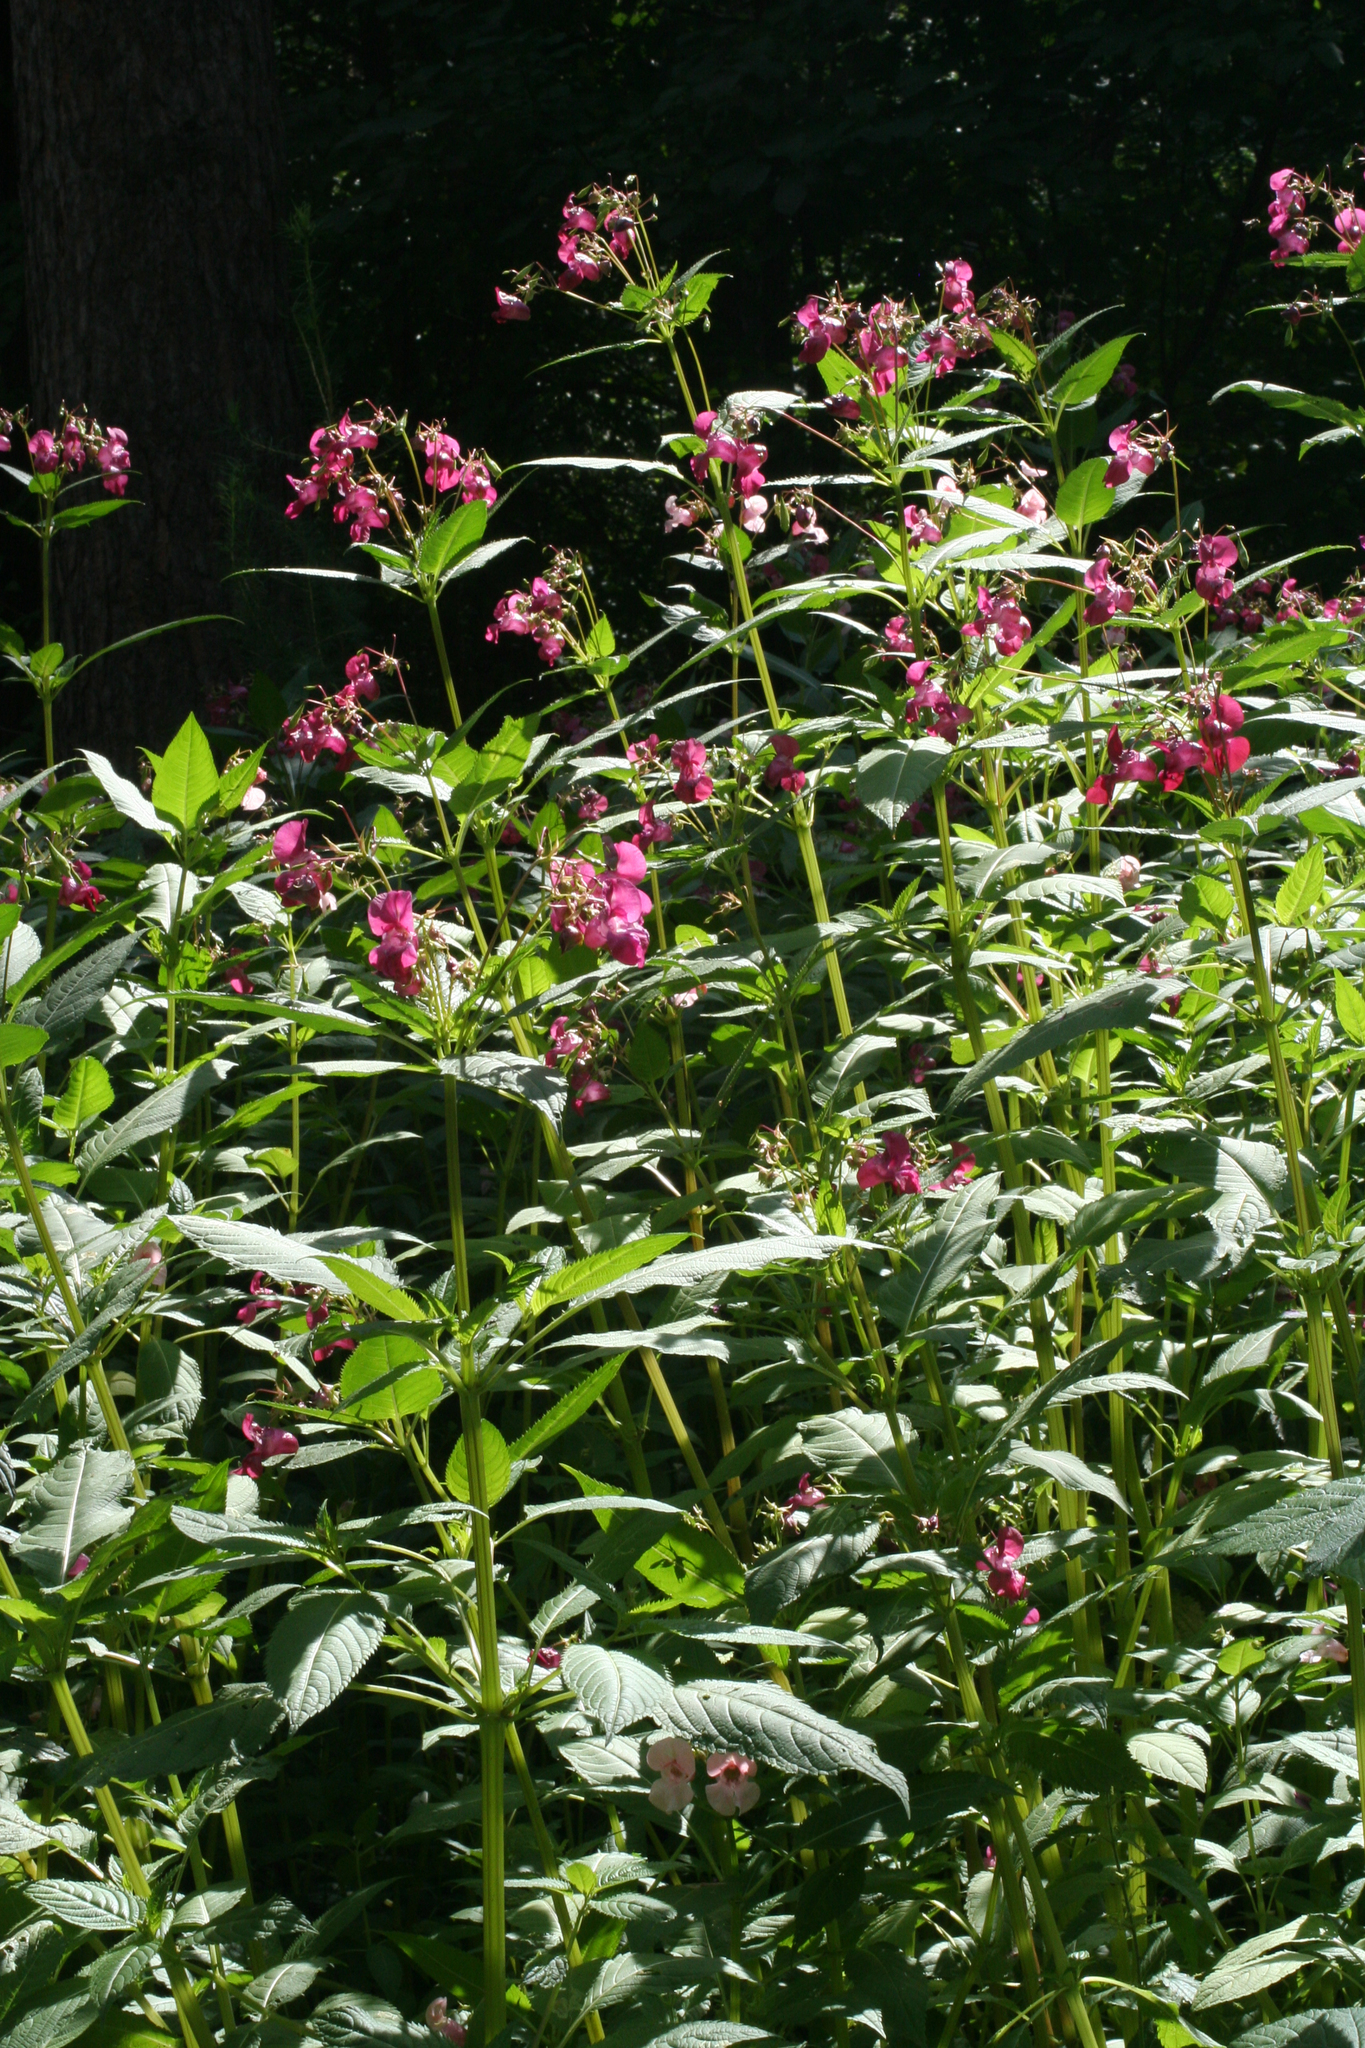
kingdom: Plantae
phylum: Tracheophyta
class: Magnoliopsida
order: Ericales
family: Balsaminaceae
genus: Impatiens
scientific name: Impatiens glandulifera
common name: Himalayan balsam
